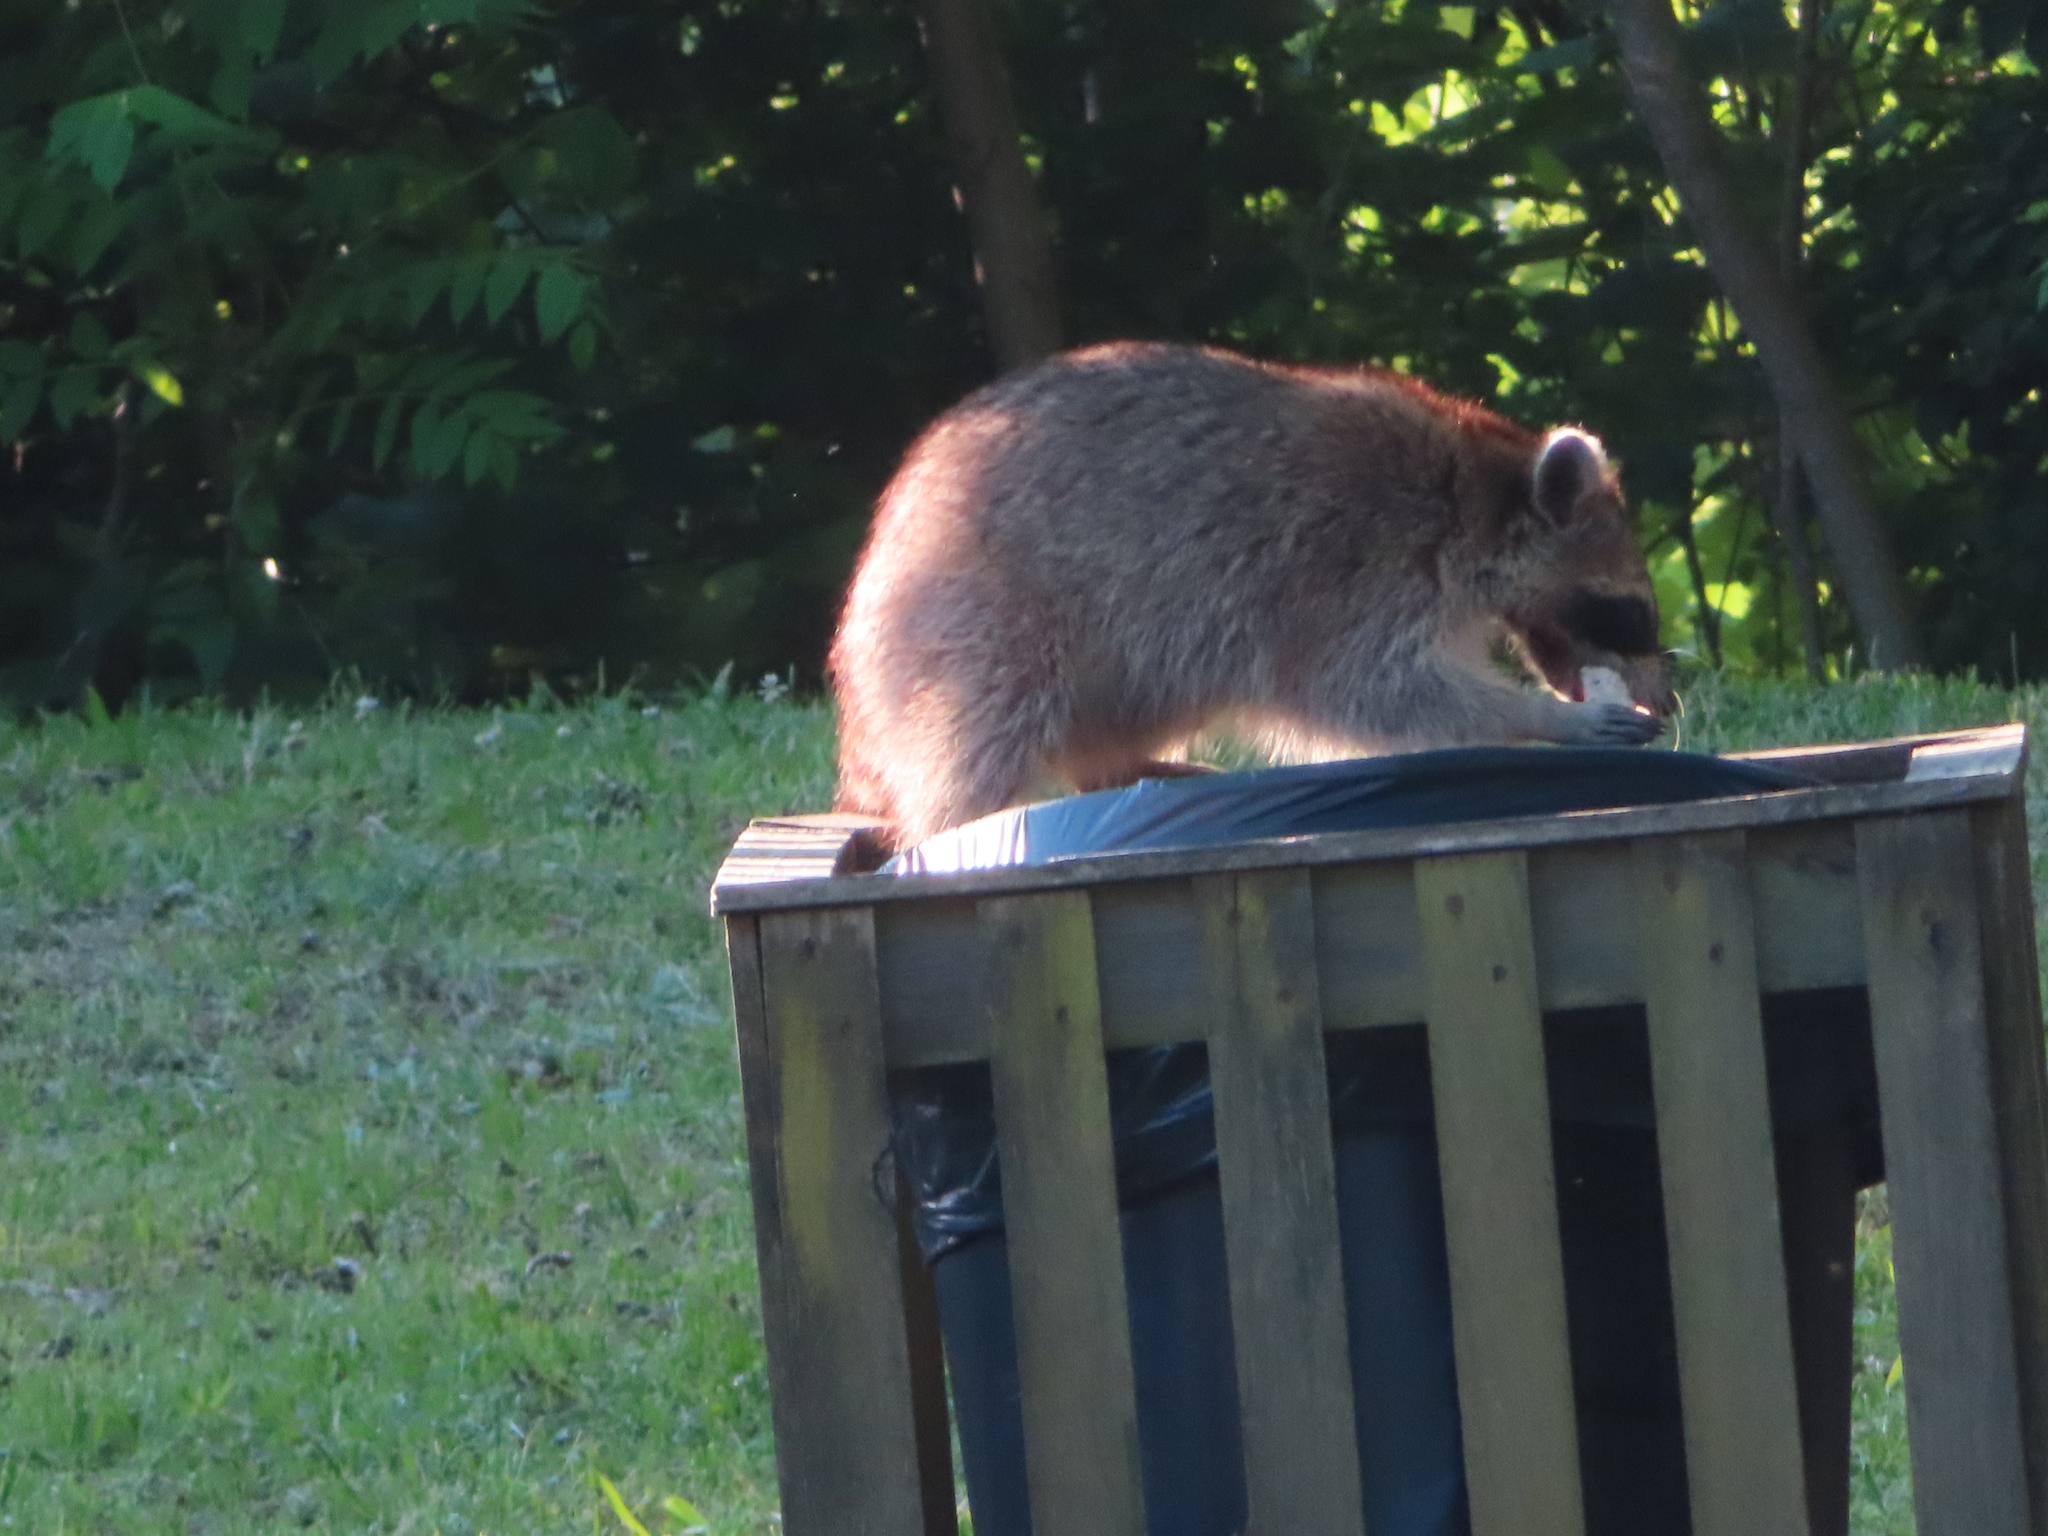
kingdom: Animalia
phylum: Chordata
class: Mammalia
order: Carnivora
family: Procyonidae
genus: Procyon
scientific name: Procyon lotor
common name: Raccoon
